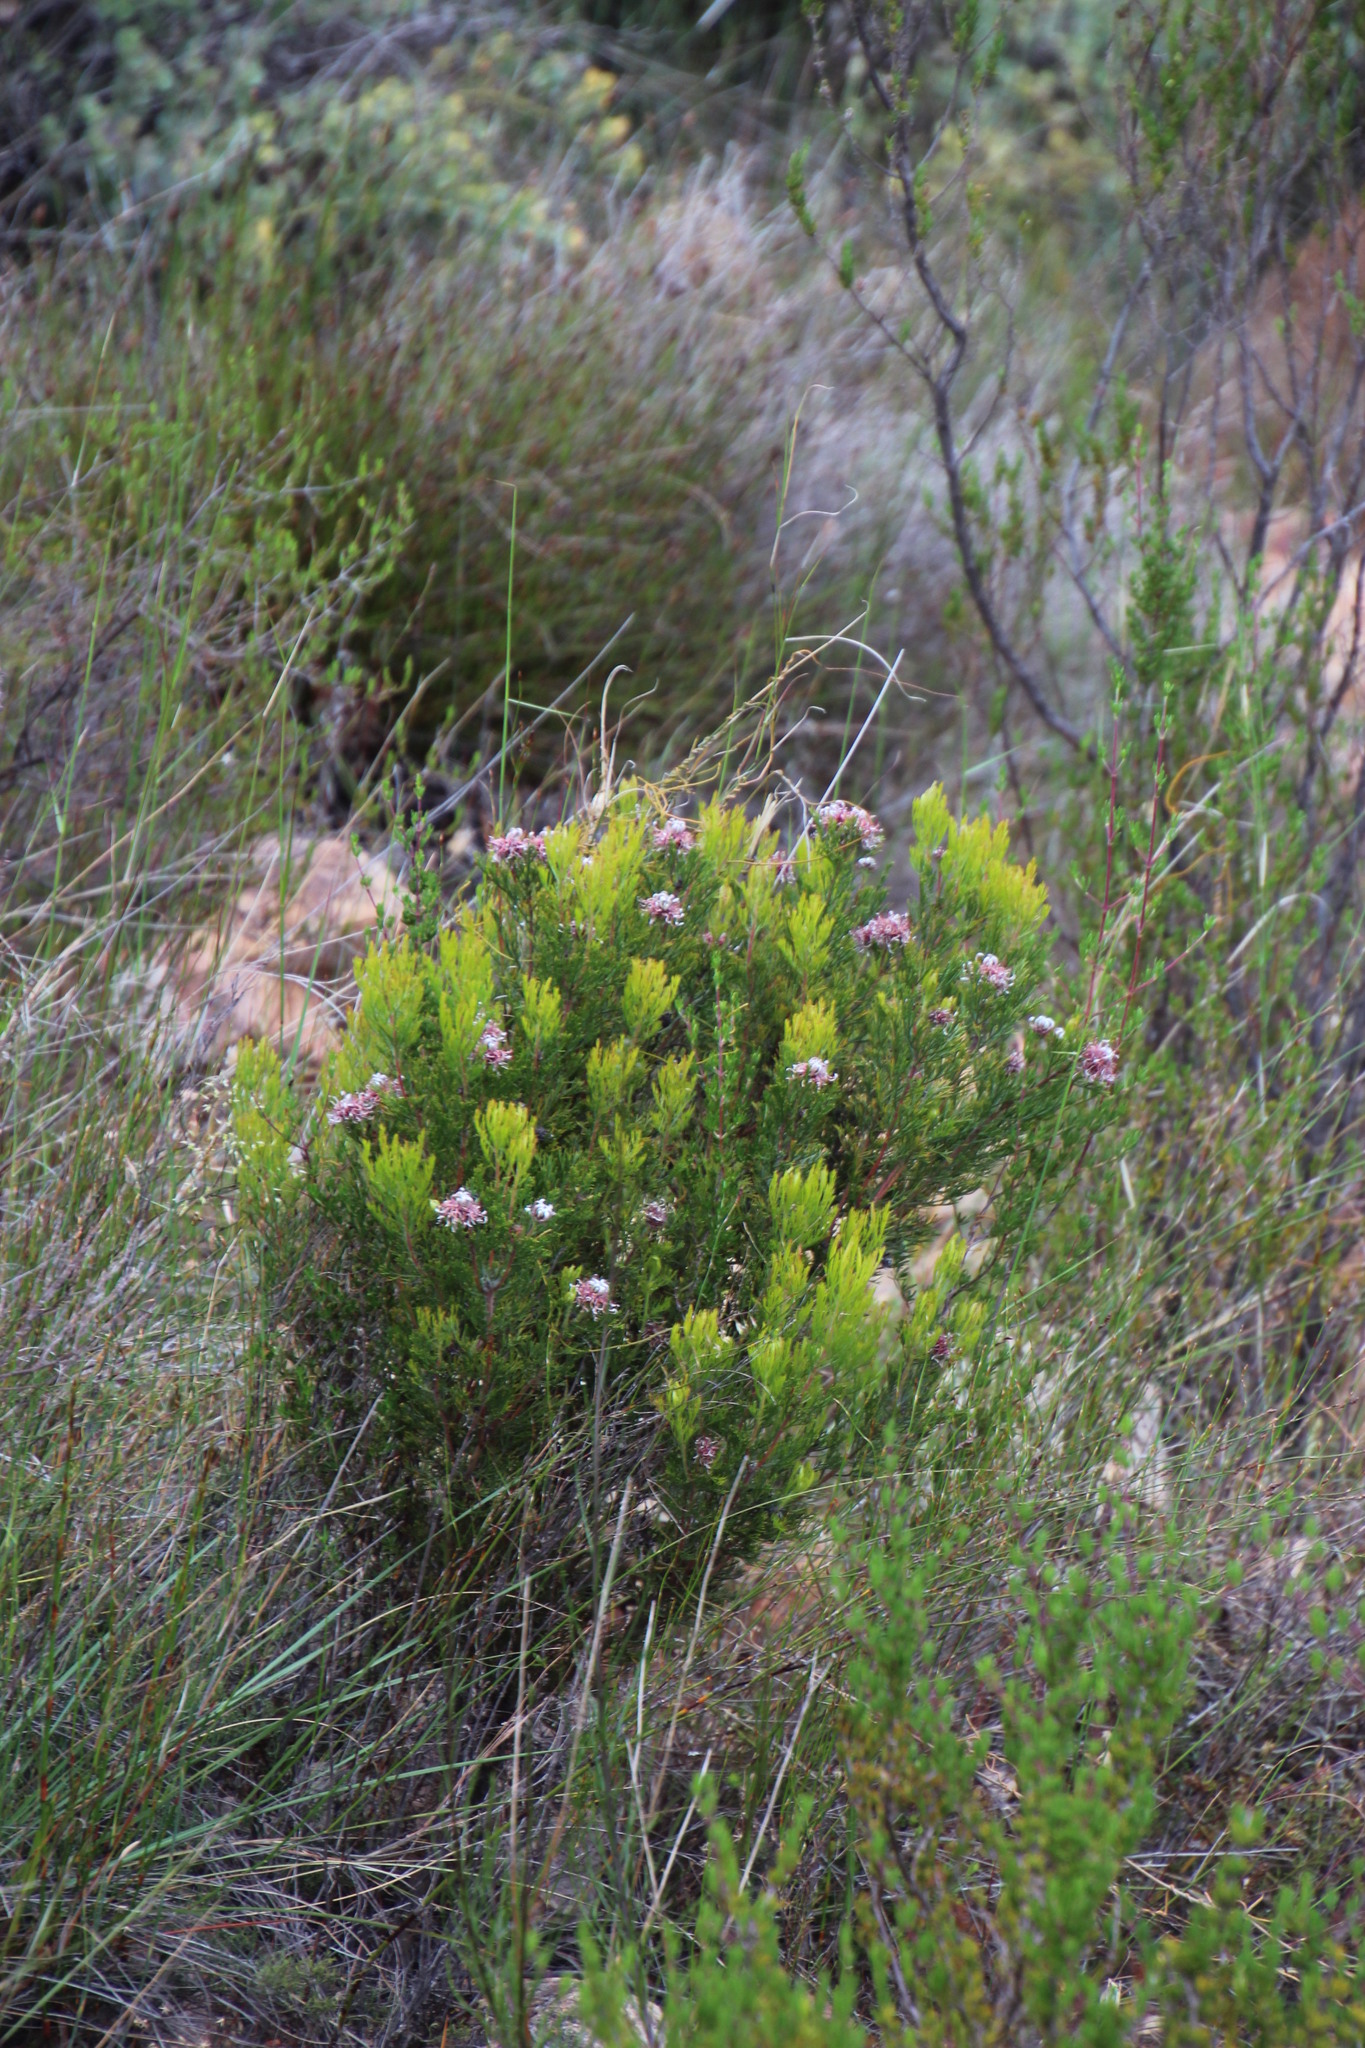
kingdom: Plantae
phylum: Tracheophyta
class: Magnoliopsida
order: Proteales
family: Proteaceae
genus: Serruria
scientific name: Serruria acrocarpa
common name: Common rootstock spiderhead
